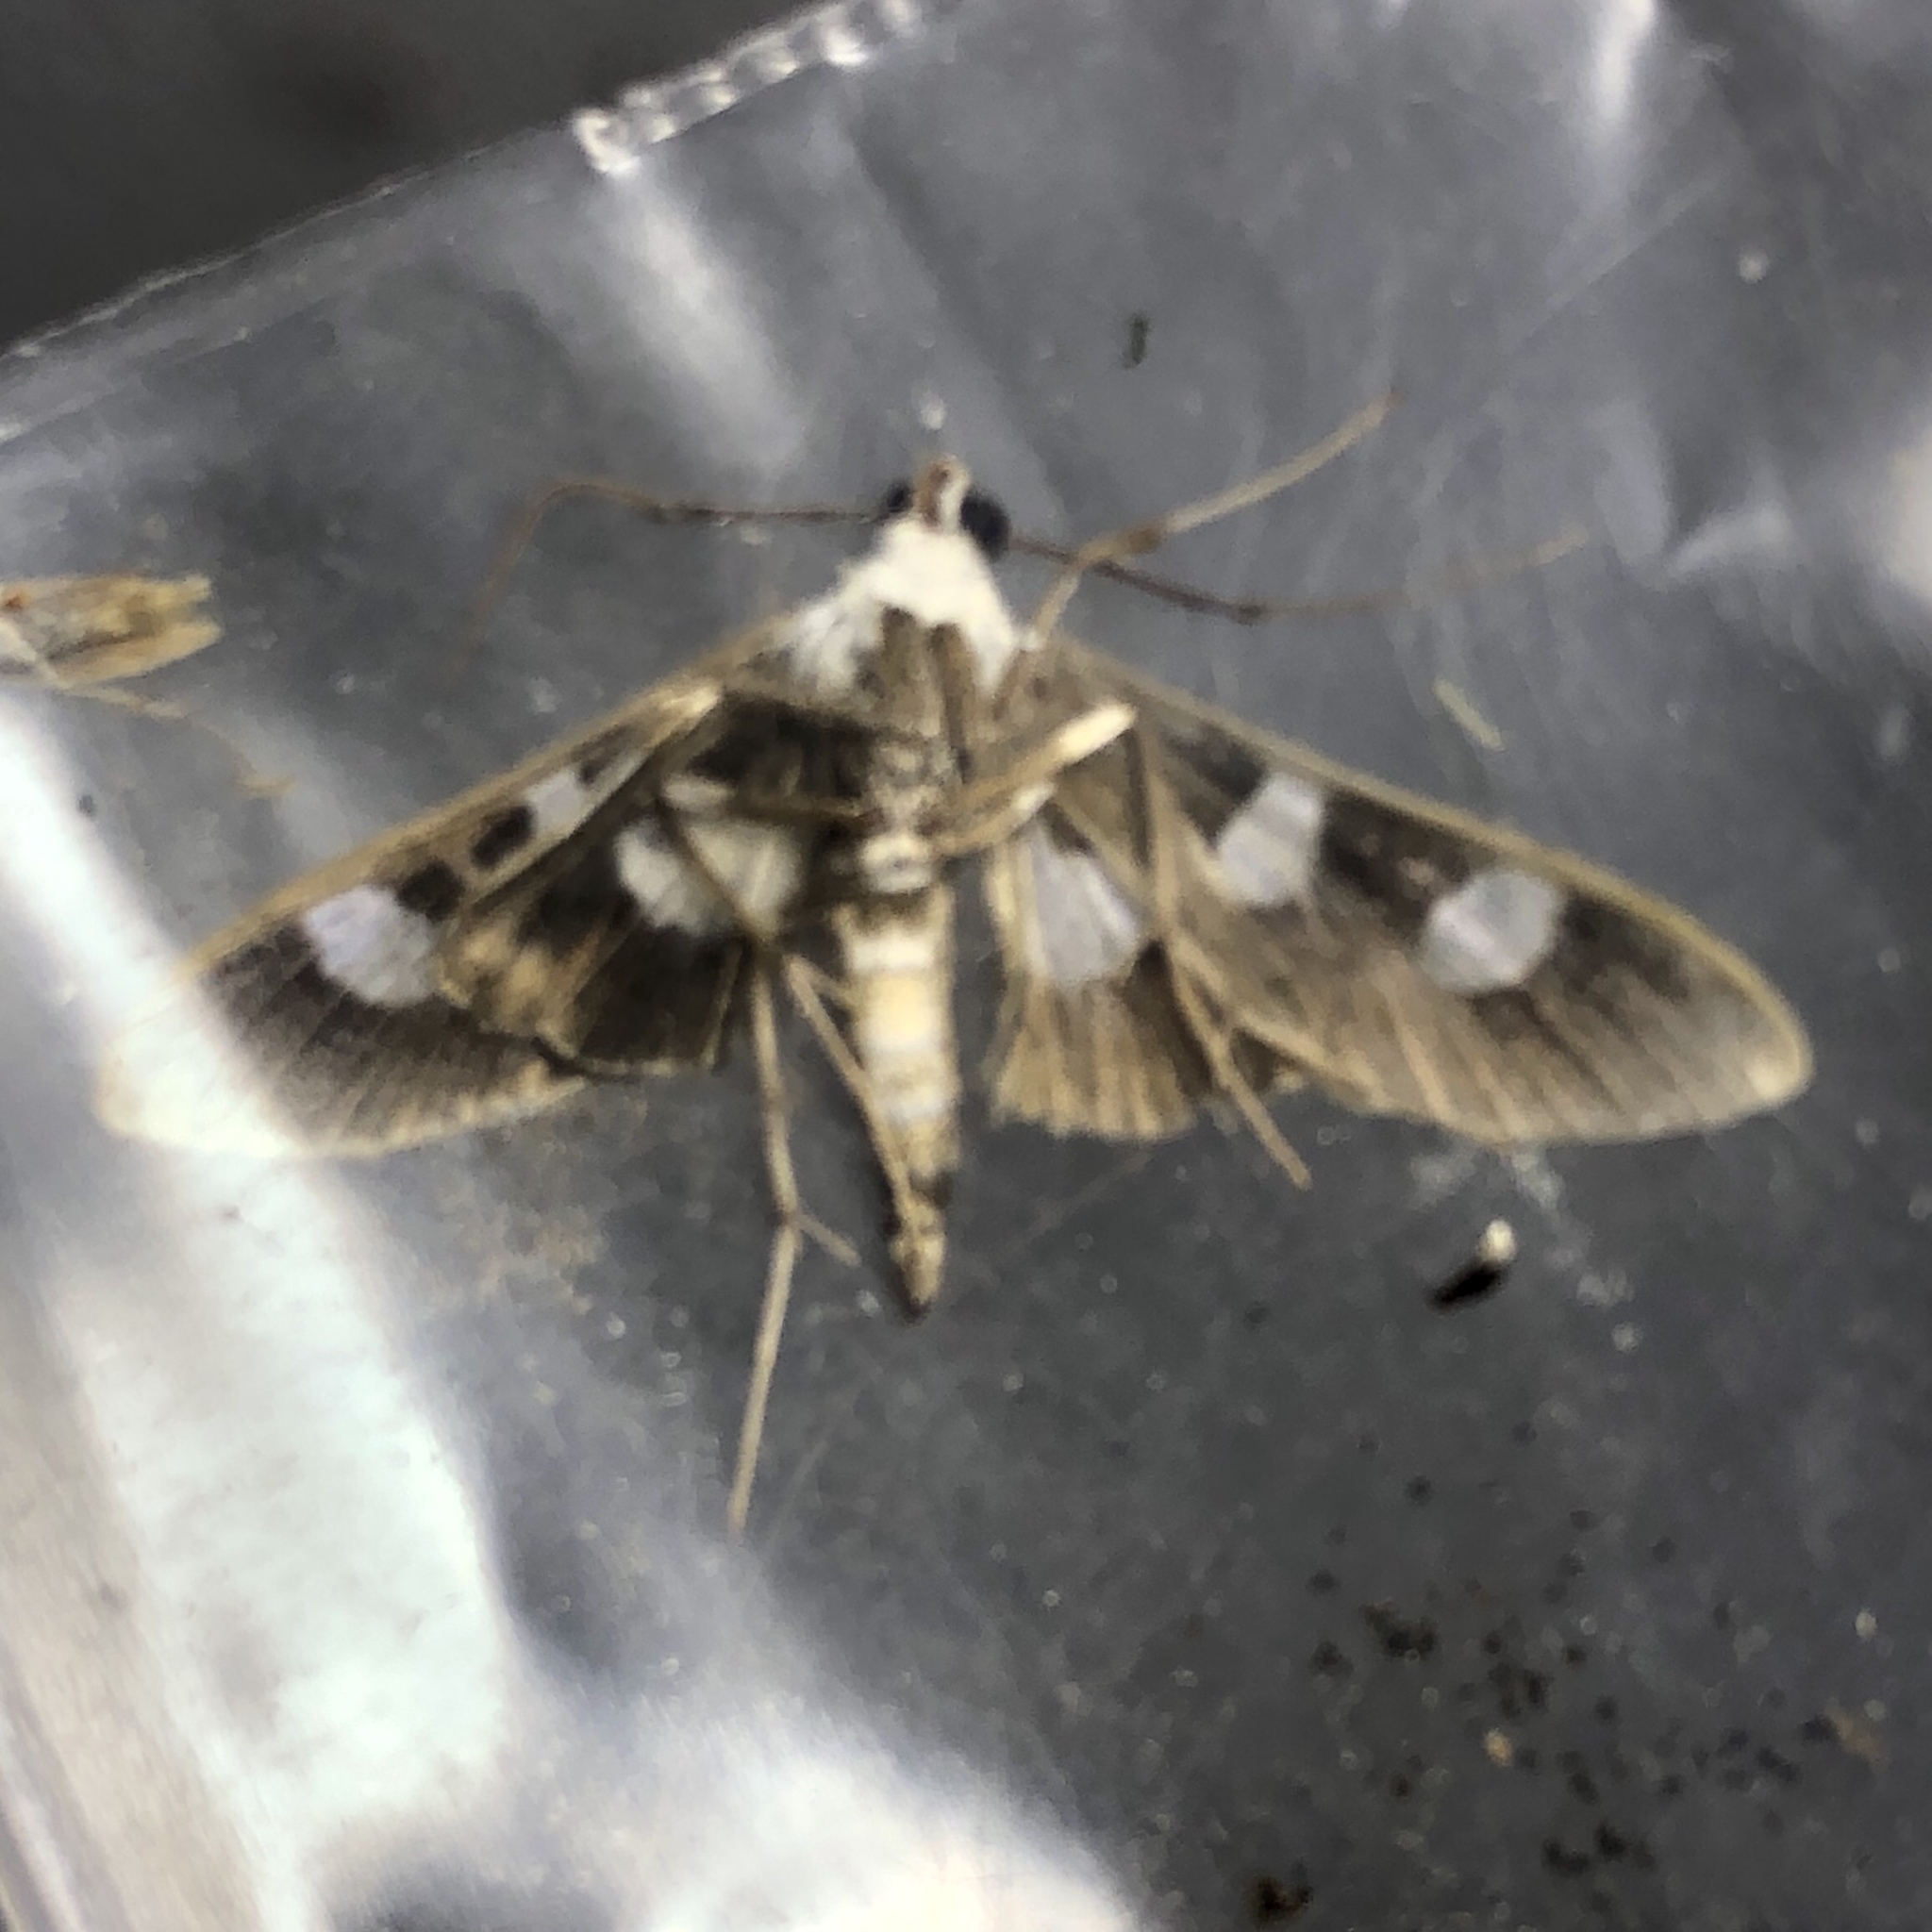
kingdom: Animalia
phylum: Arthropoda
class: Insecta
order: Lepidoptera
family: Crambidae
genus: Desmia
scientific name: Desmia funeralis
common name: Grape leaf folder moth
